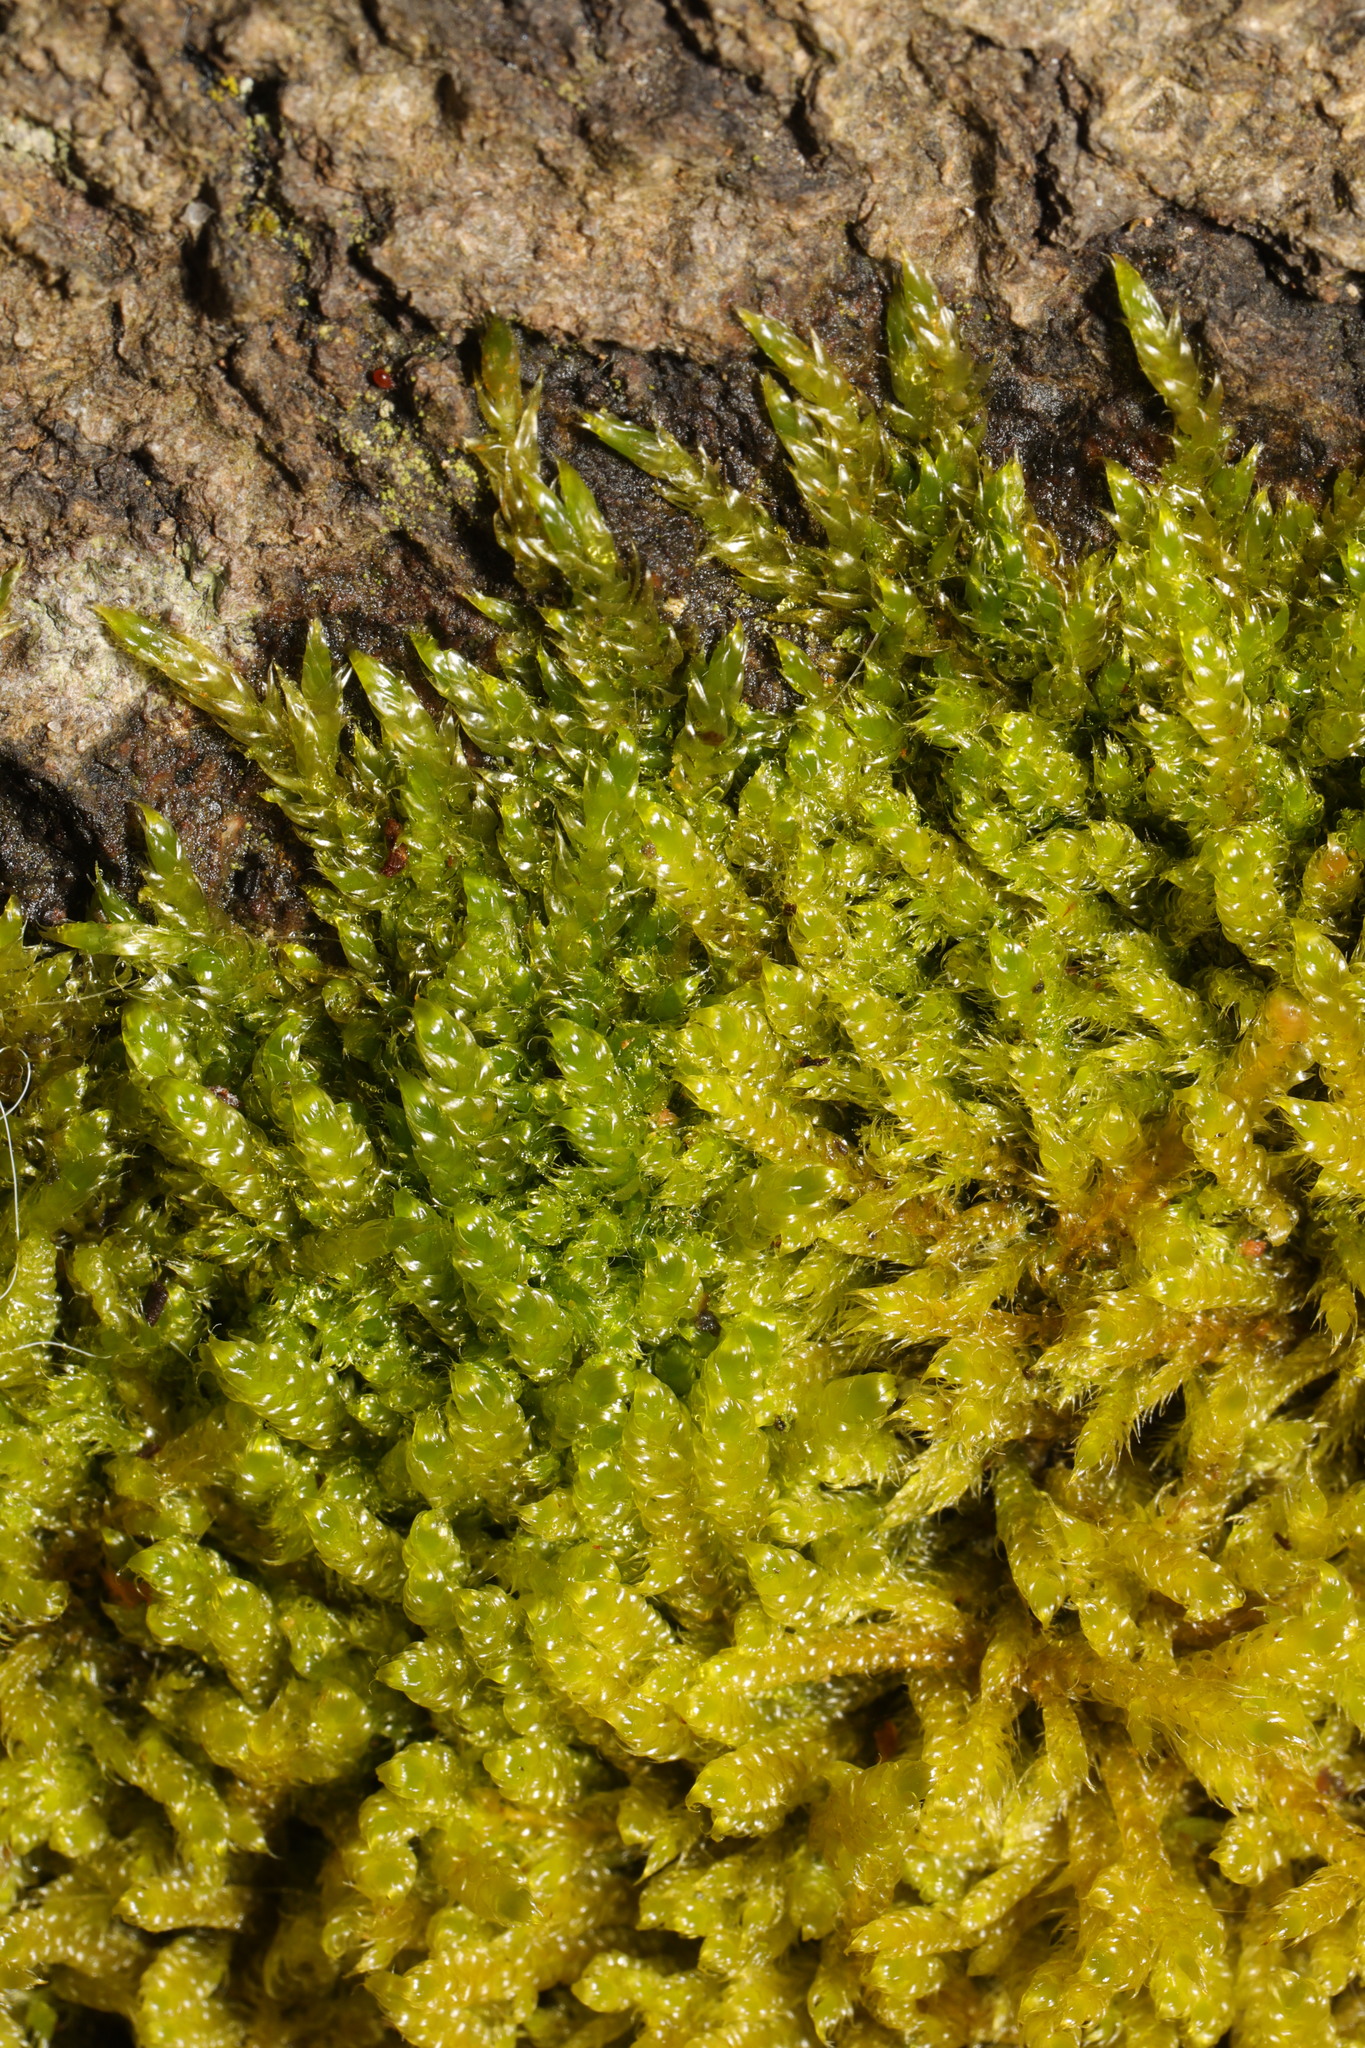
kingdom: Plantae
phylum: Bryophyta
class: Bryopsida
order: Hypnales
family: Hypnaceae
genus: Hypnum
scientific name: Hypnum cupressiforme
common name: Cypress-leaved plait-moss
